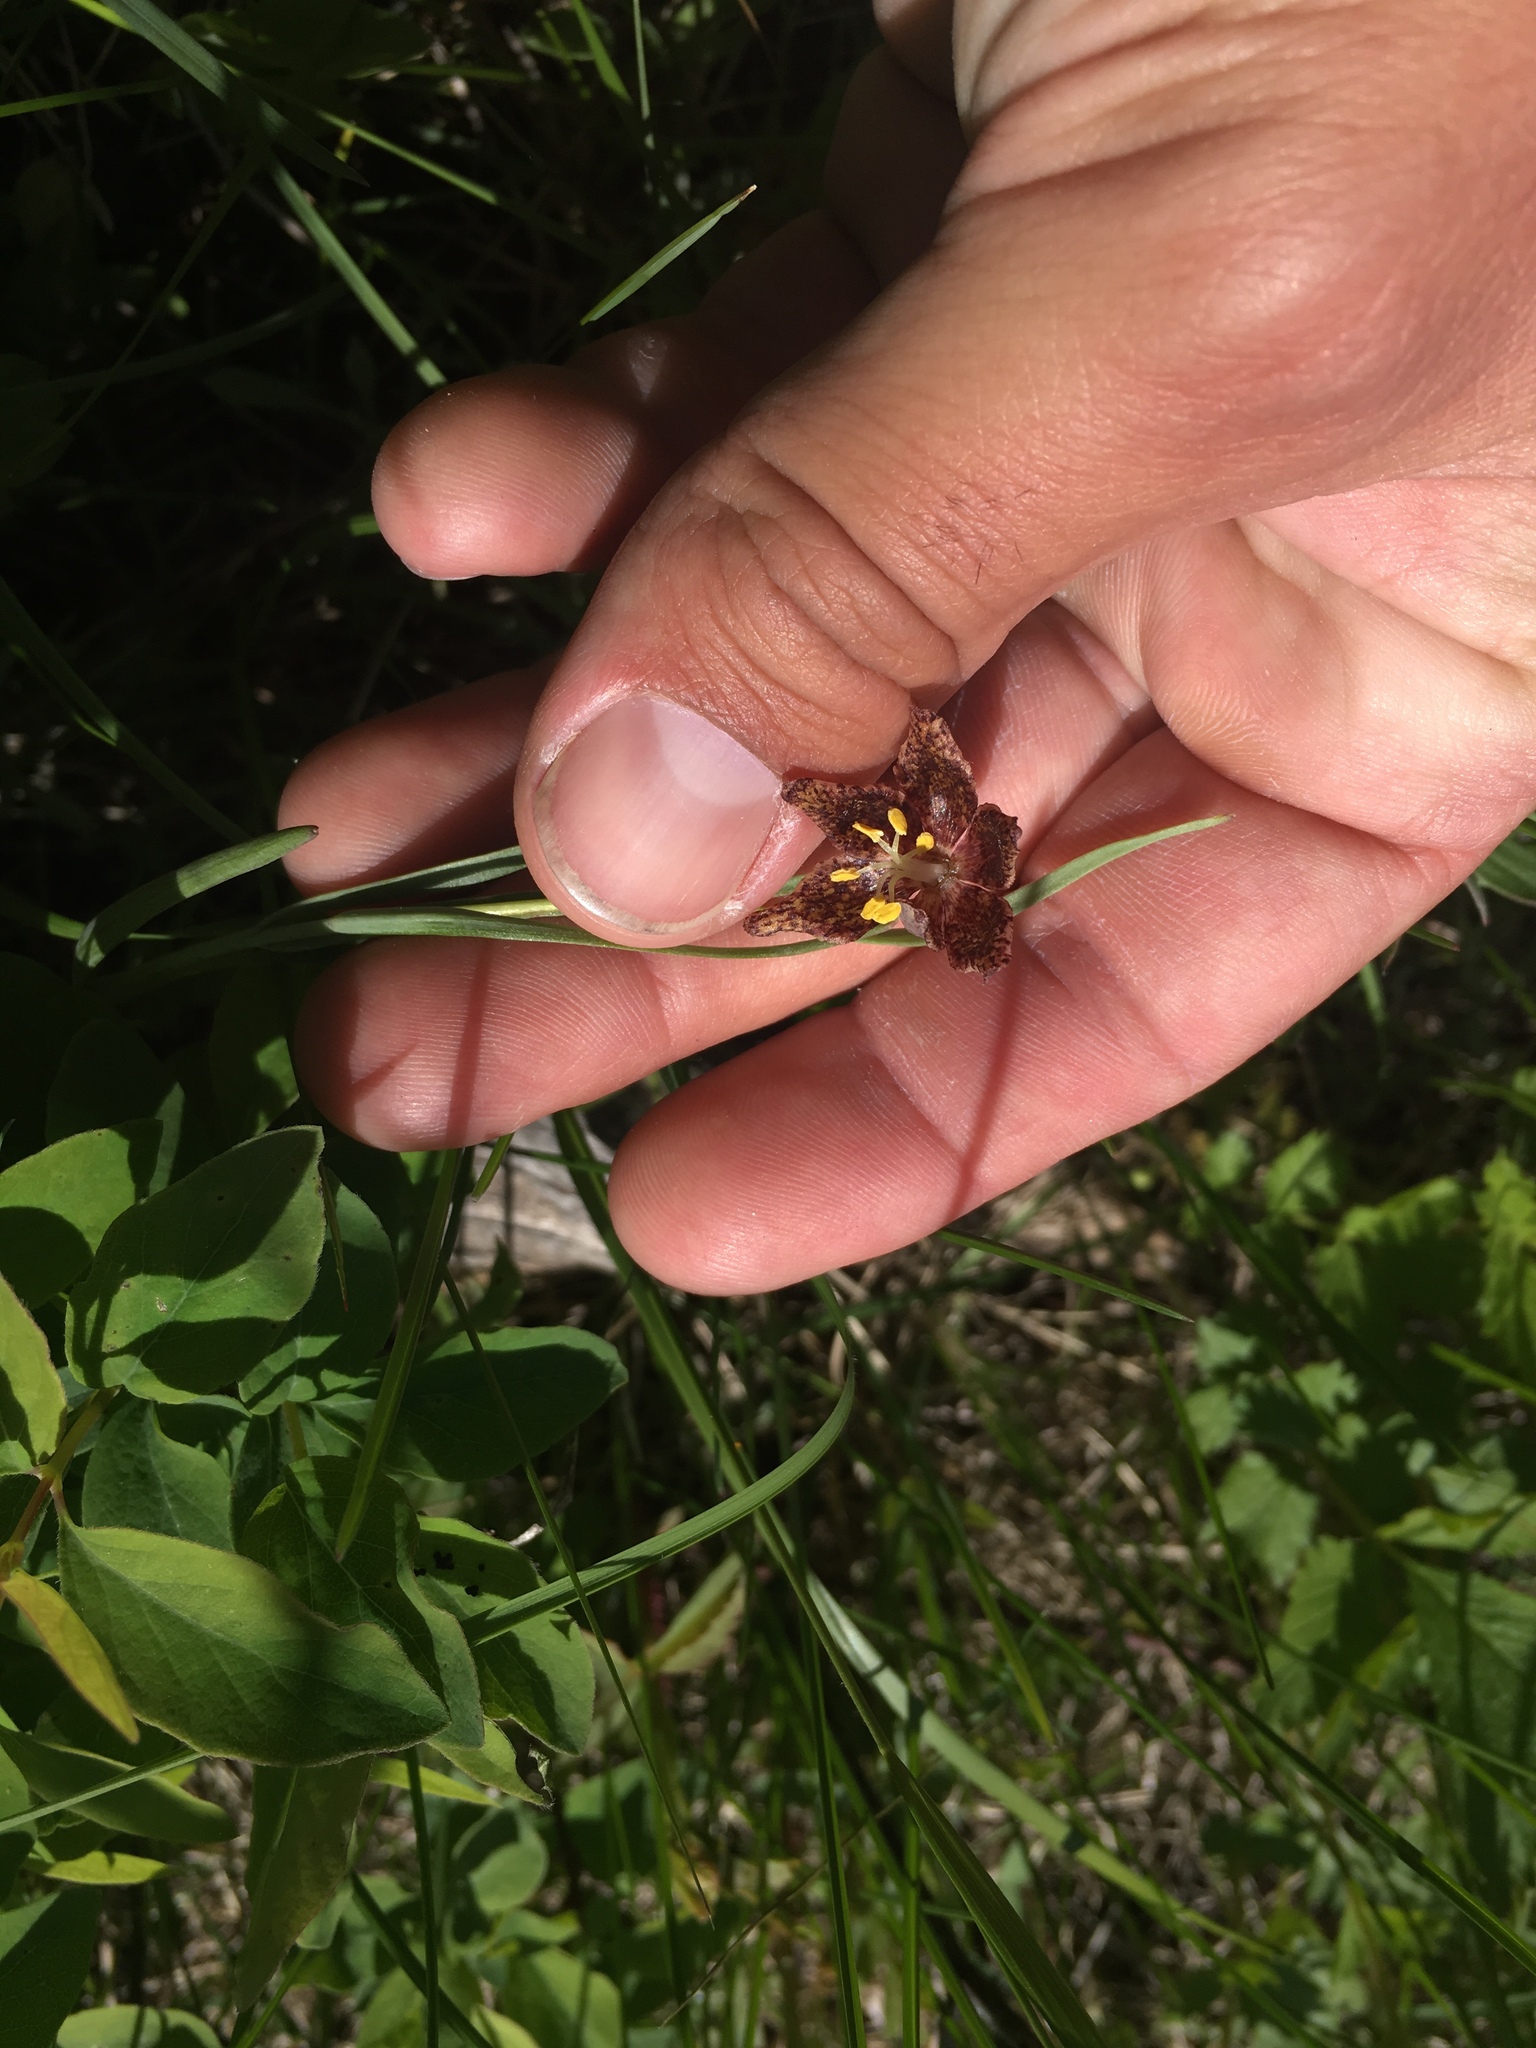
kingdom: Plantae
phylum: Tracheophyta
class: Liliopsida
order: Liliales
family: Liliaceae
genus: Fritillaria
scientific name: Fritillaria atropurpurea
